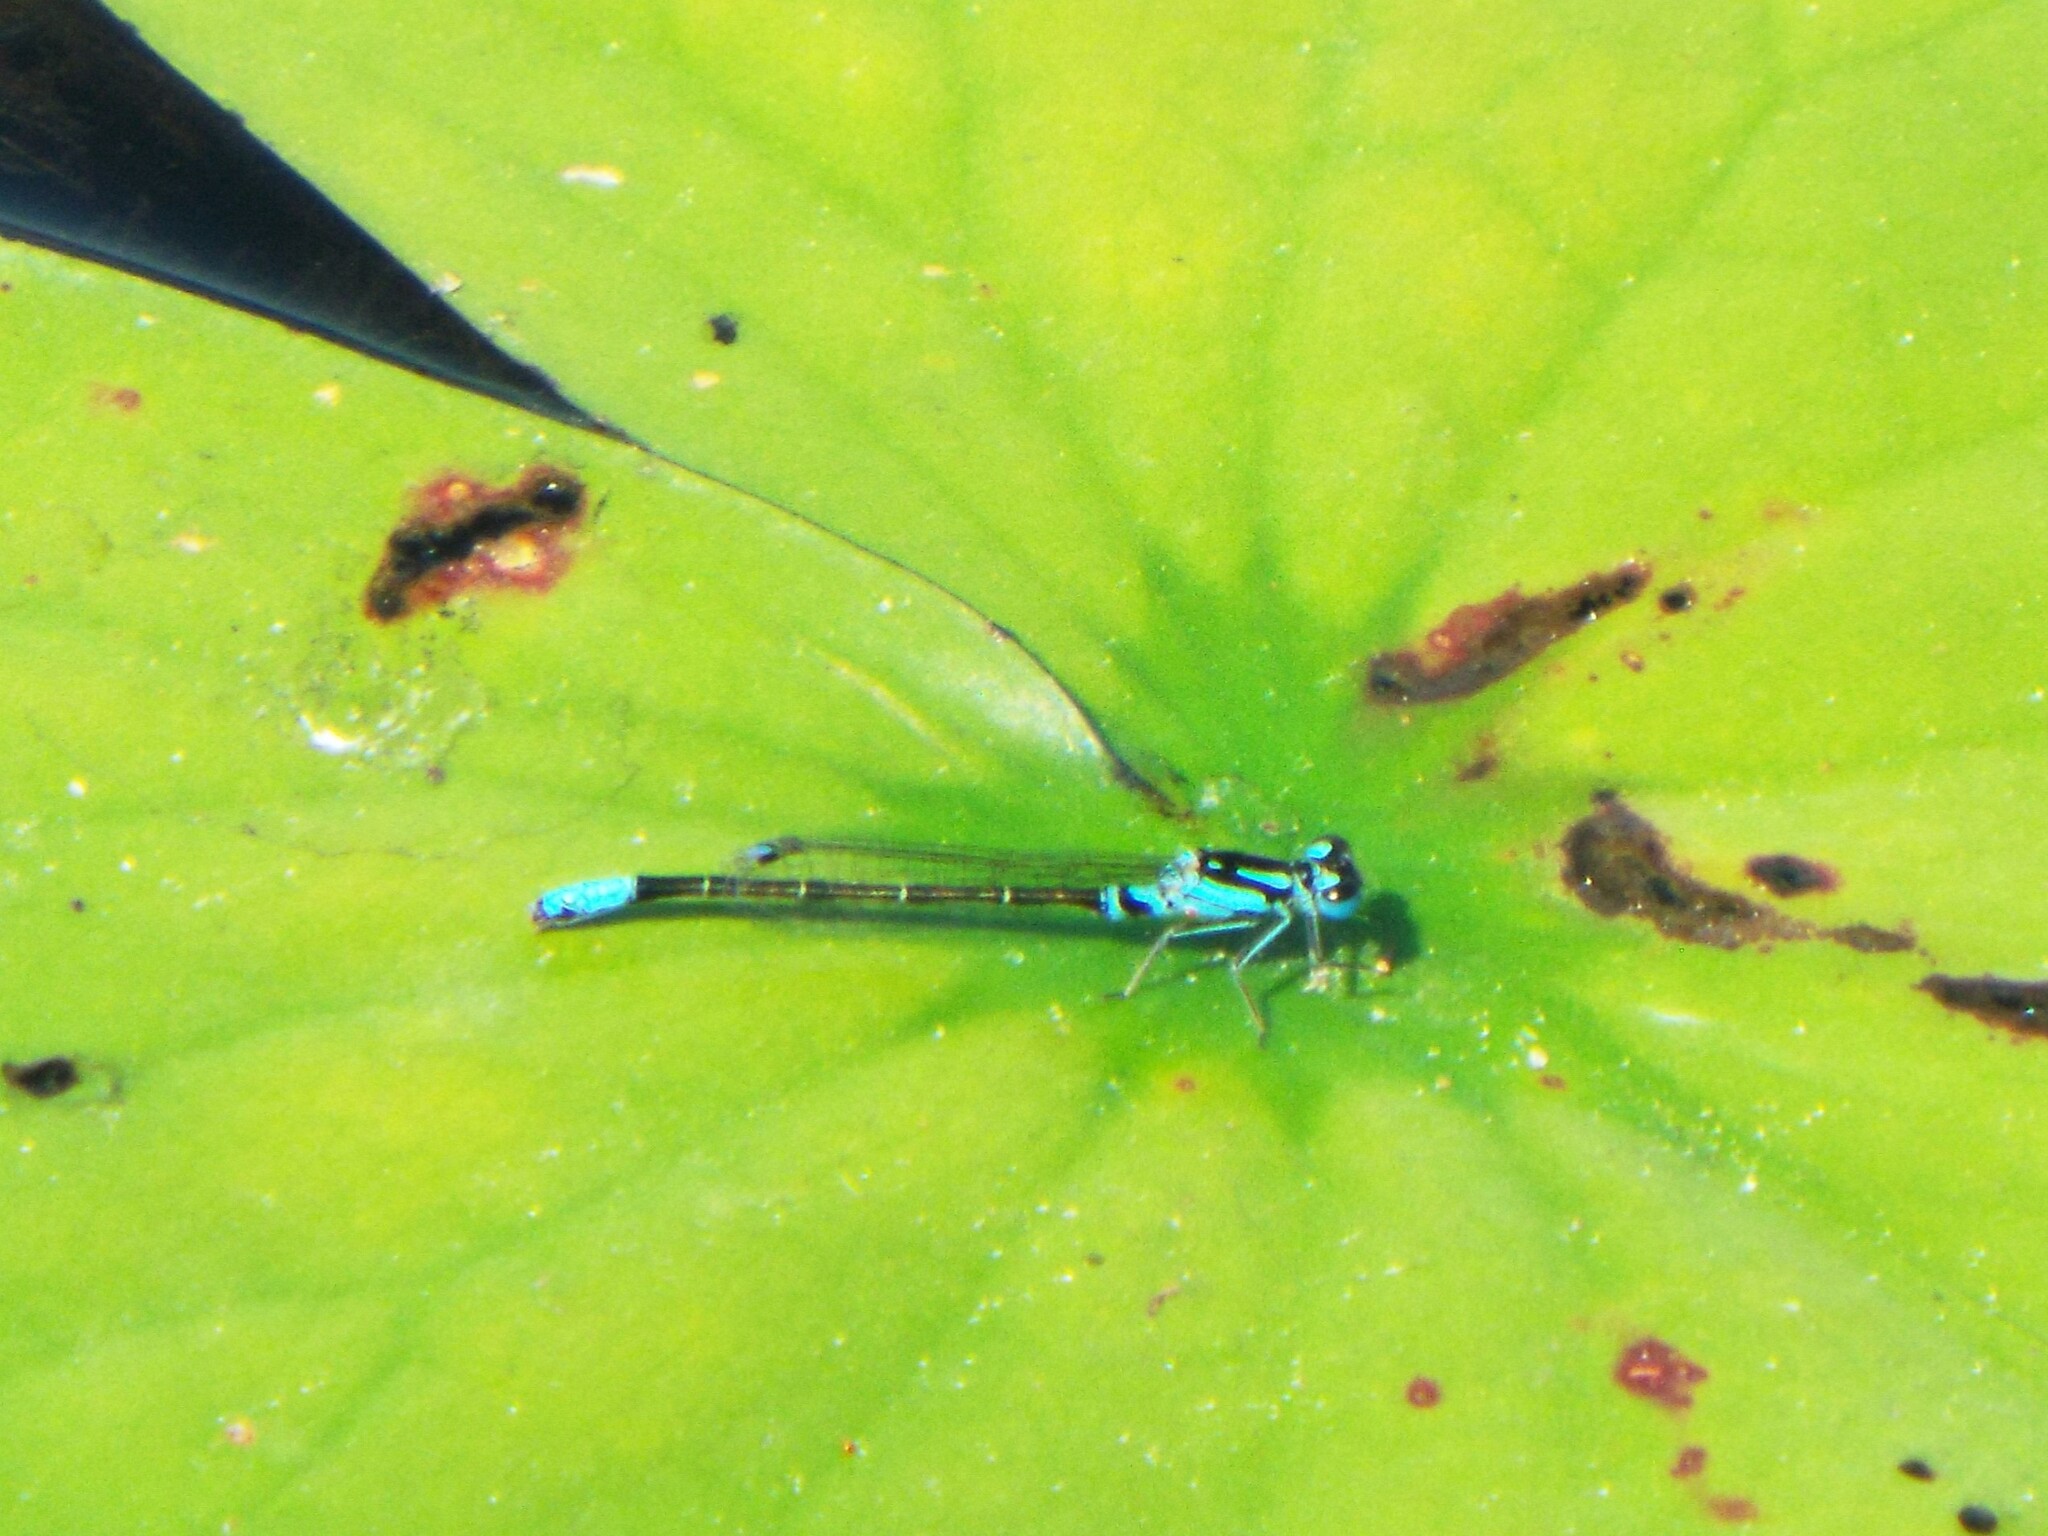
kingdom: Animalia
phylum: Arthropoda
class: Insecta
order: Odonata
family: Coenagrionidae
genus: Ischnura
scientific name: Ischnura kellicotti
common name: Lilypad forktail
